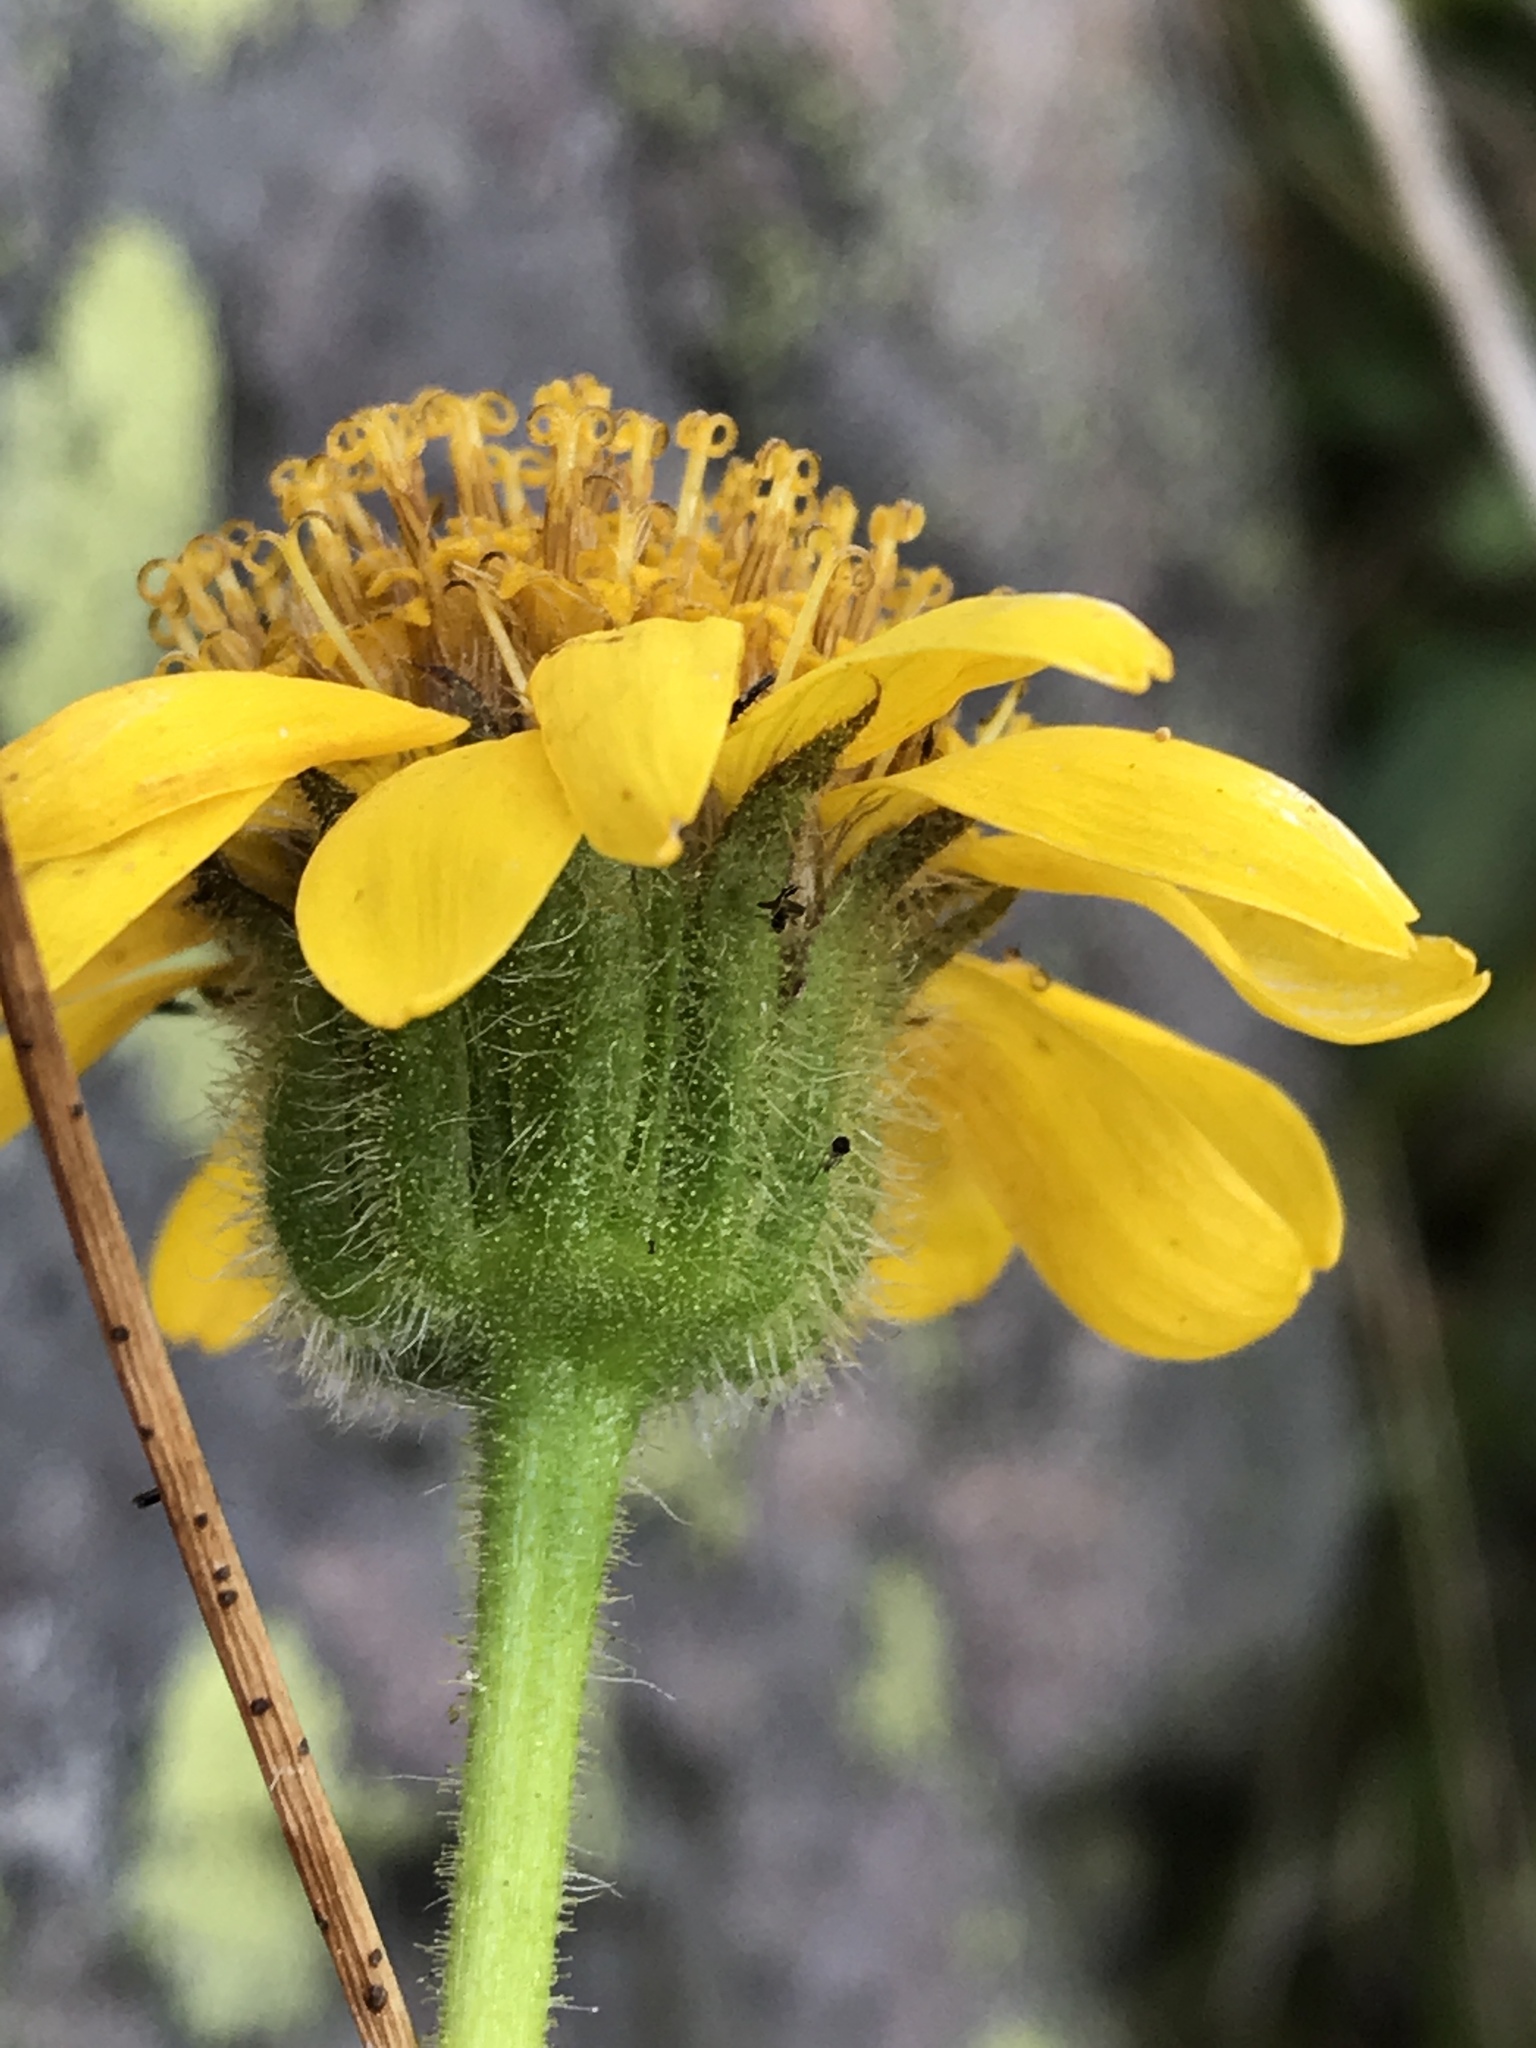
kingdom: Plantae
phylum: Tracheophyta
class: Magnoliopsida
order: Asterales
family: Asteraceae
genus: Arnica
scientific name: Arnica mollis
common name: Hairy arnica
